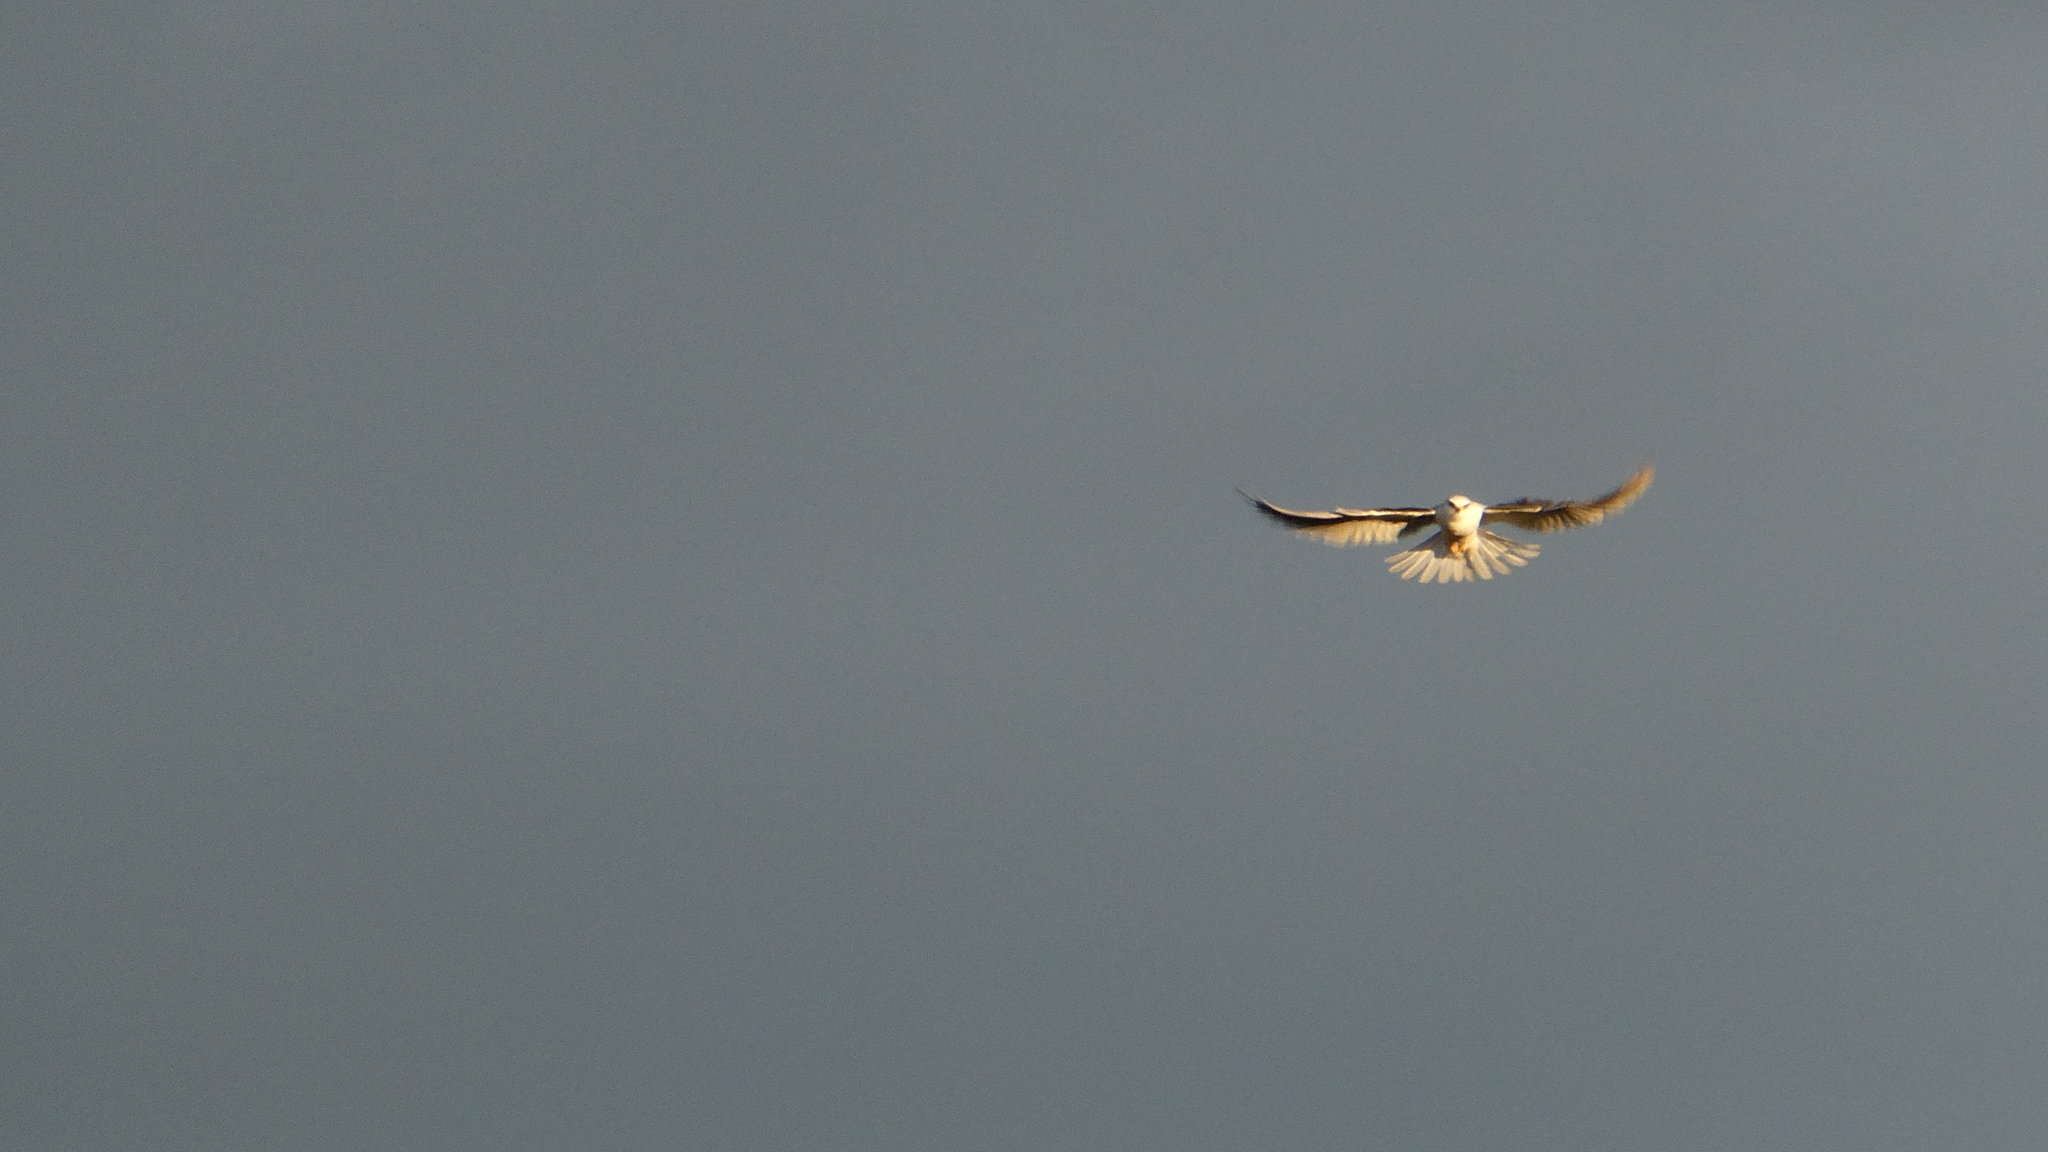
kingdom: Animalia
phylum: Chordata
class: Aves
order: Accipitriformes
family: Accipitridae
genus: Elanus
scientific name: Elanus leucurus
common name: White-tailed kite
